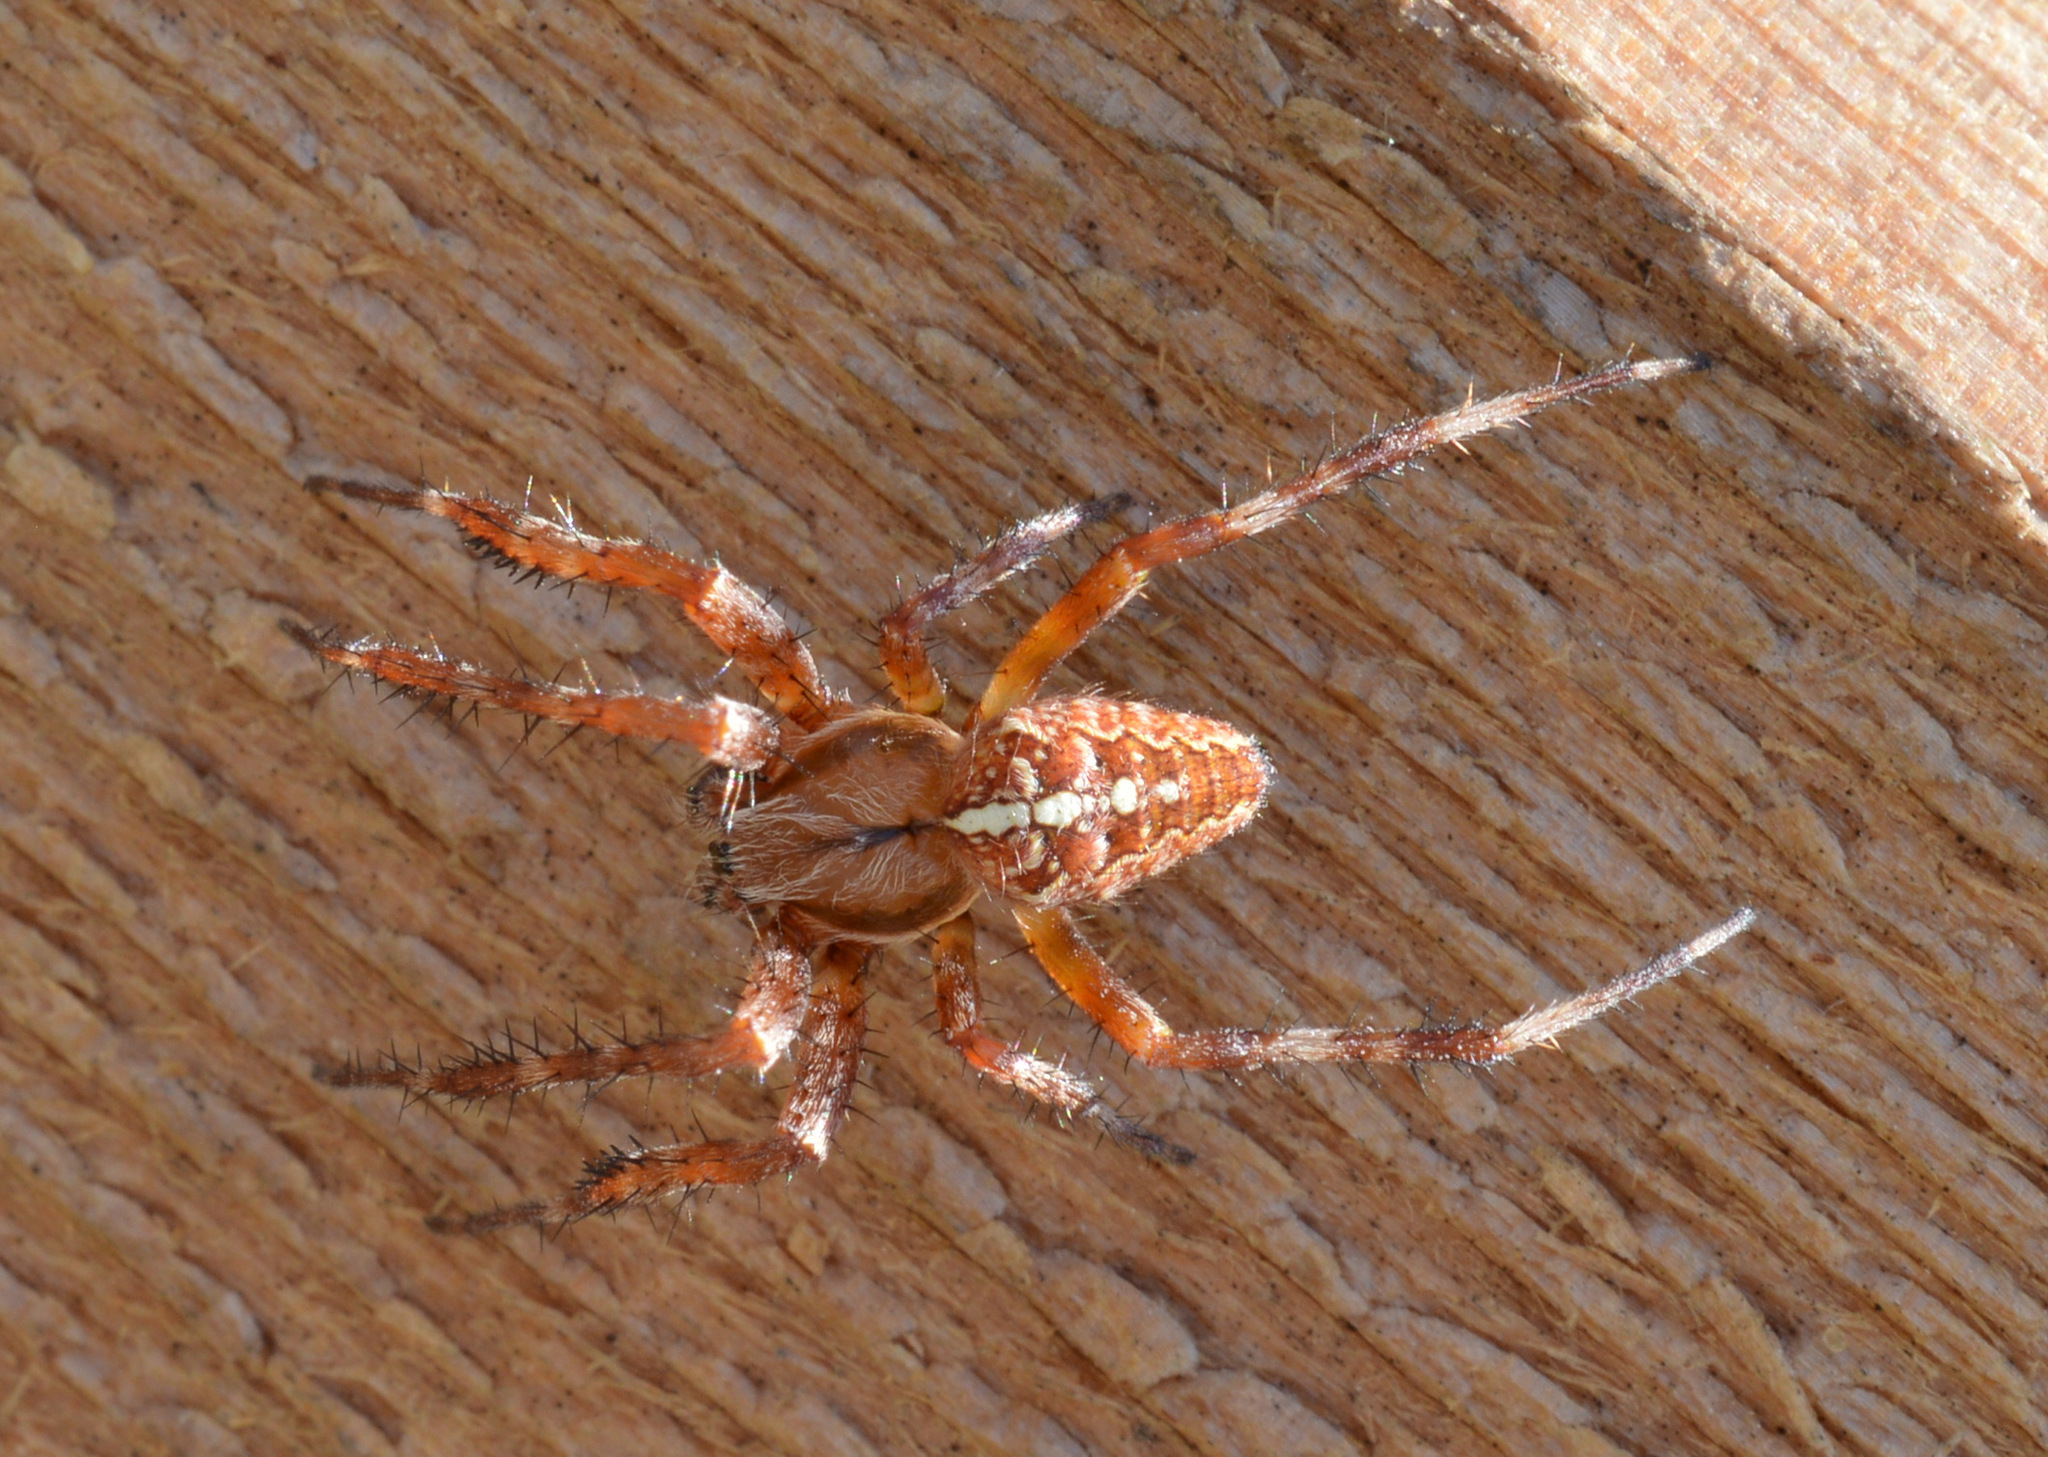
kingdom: Animalia
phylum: Arthropoda
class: Arachnida
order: Araneae
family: Araneidae
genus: Araneus
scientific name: Araneus diadematus
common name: Cross orbweaver
